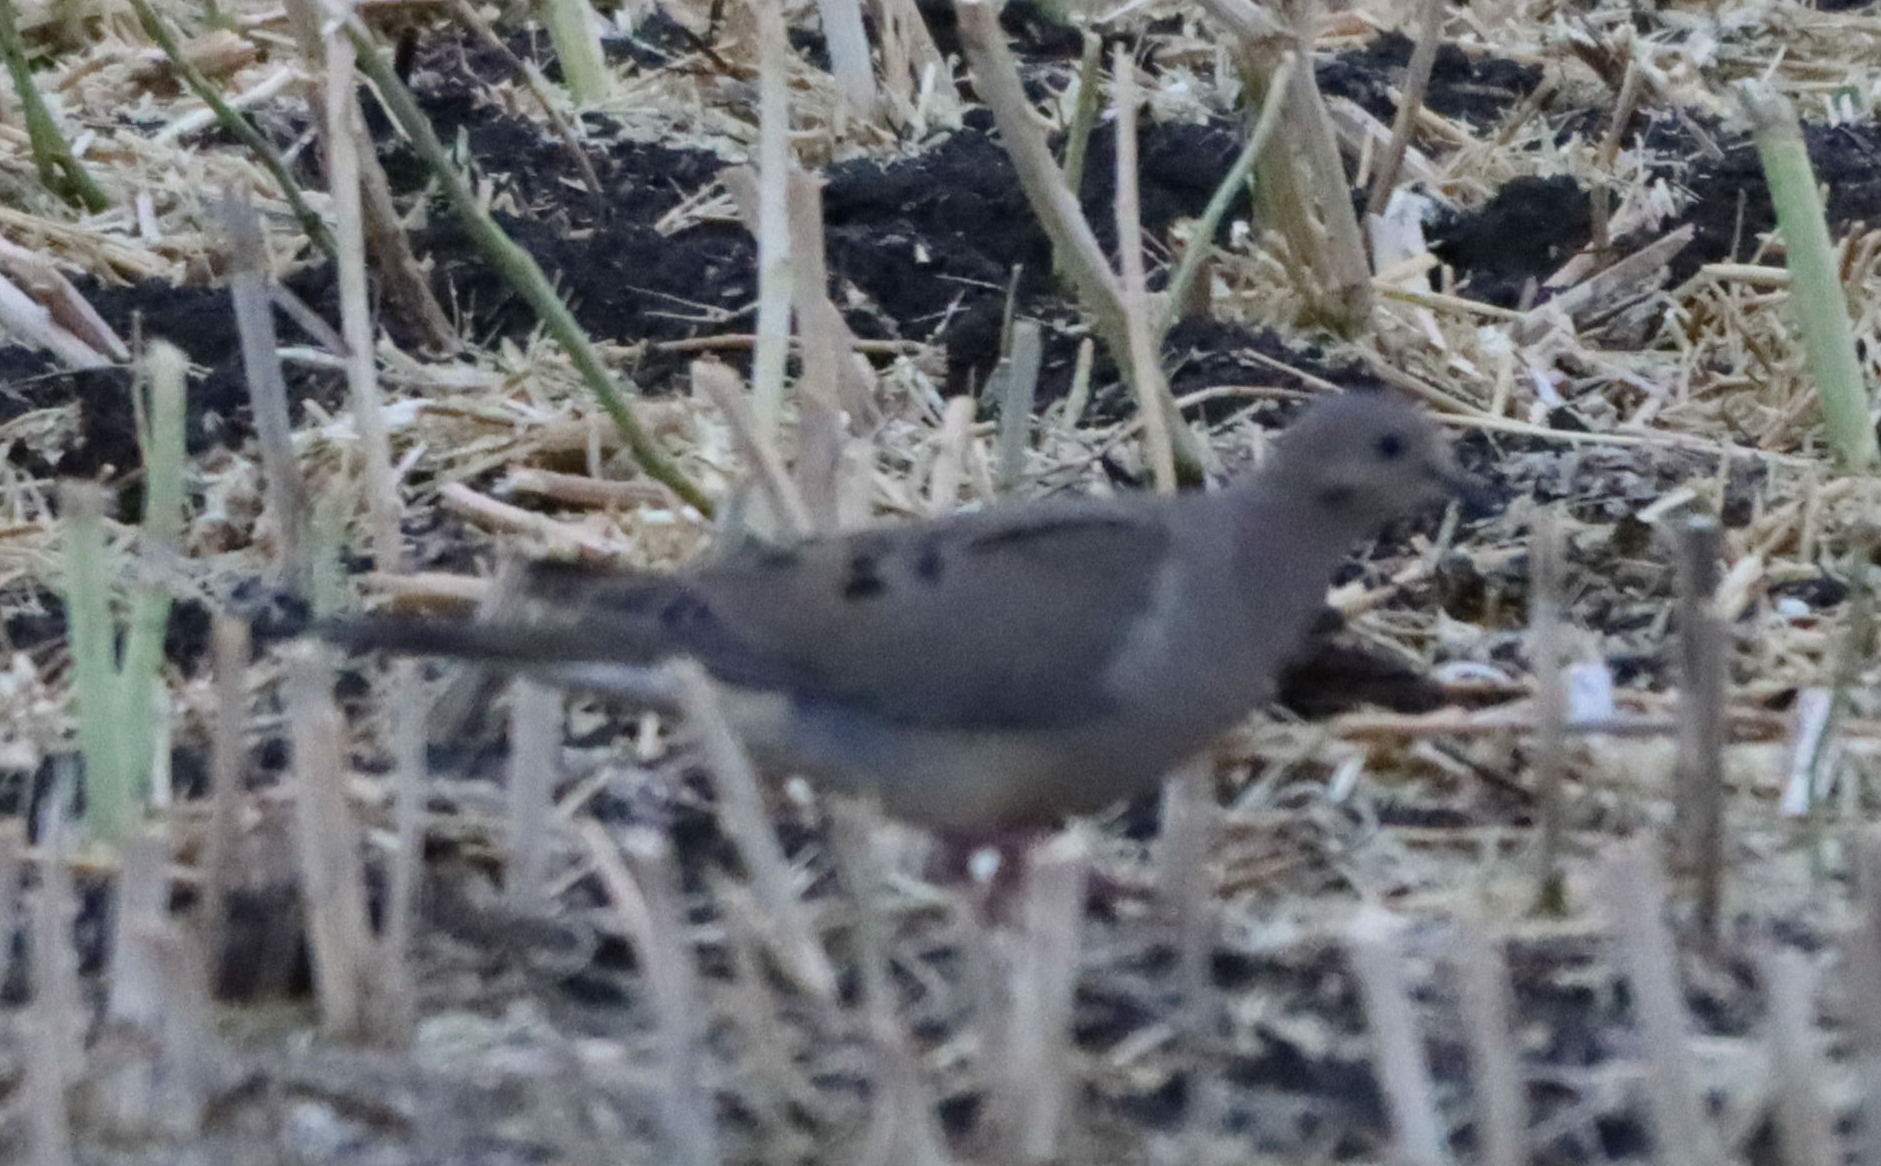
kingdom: Animalia
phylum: Chordata
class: Aves
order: Columbiformes
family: Columbidae
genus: Zenaida
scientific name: Zenaida macroura
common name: Mourning dove
